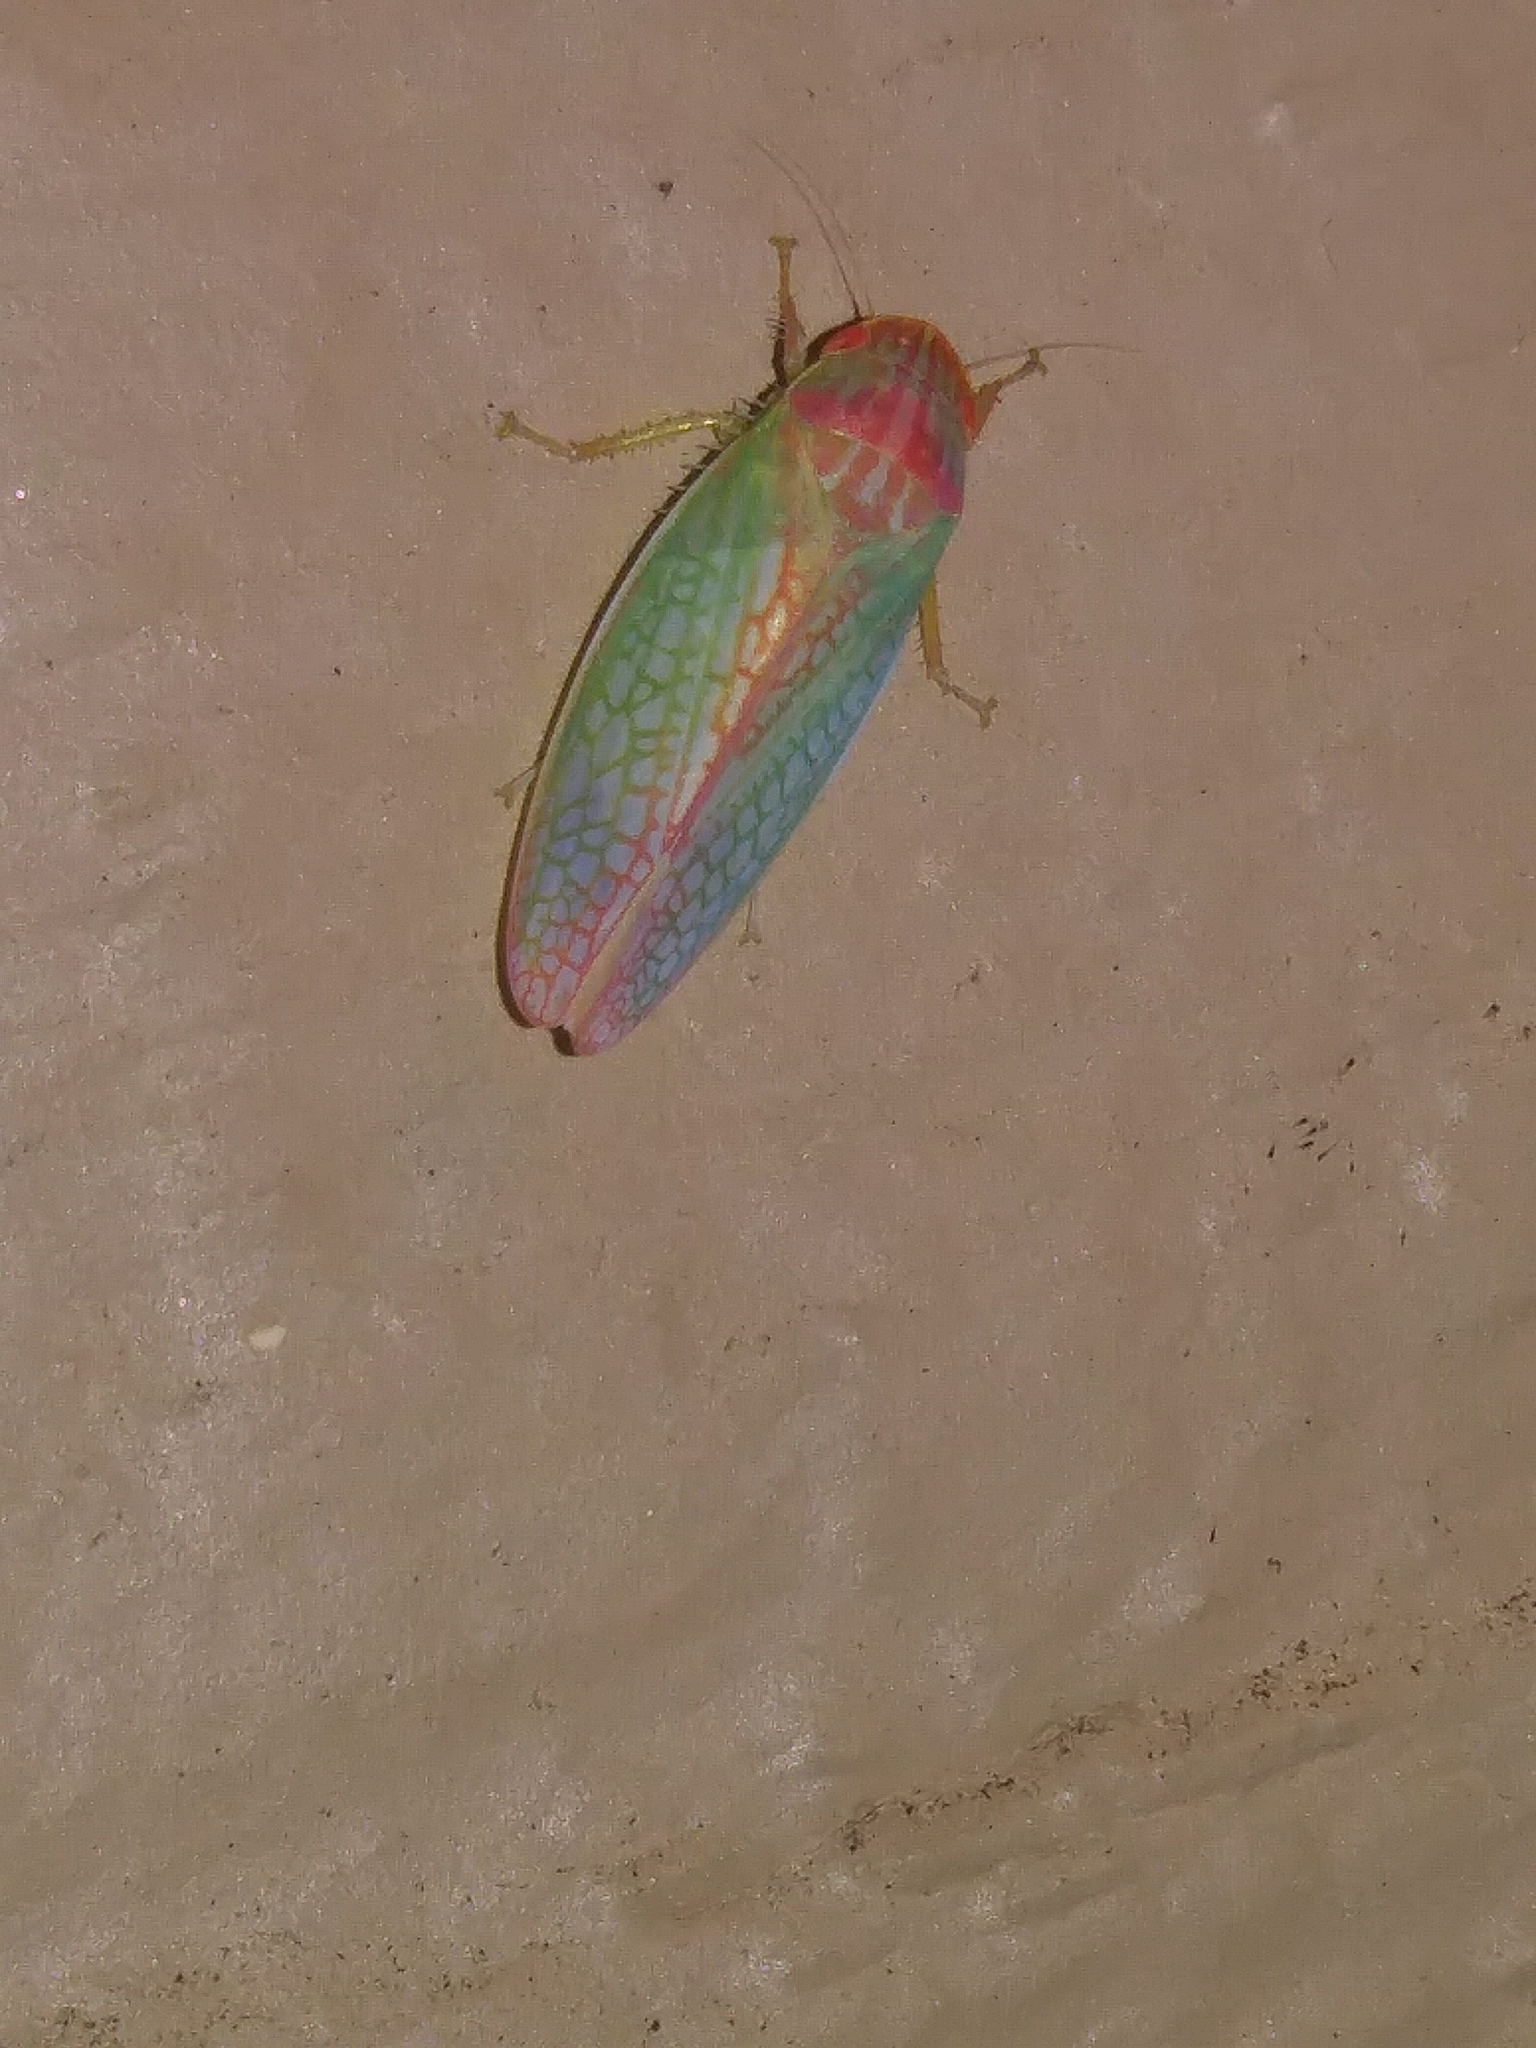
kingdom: Animalia
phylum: Arthropoda
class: Insecta
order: Hemiptera
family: Cicadellidae
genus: Gyponana
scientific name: Gyponana octolineata
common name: Eight-lined leafhopper
